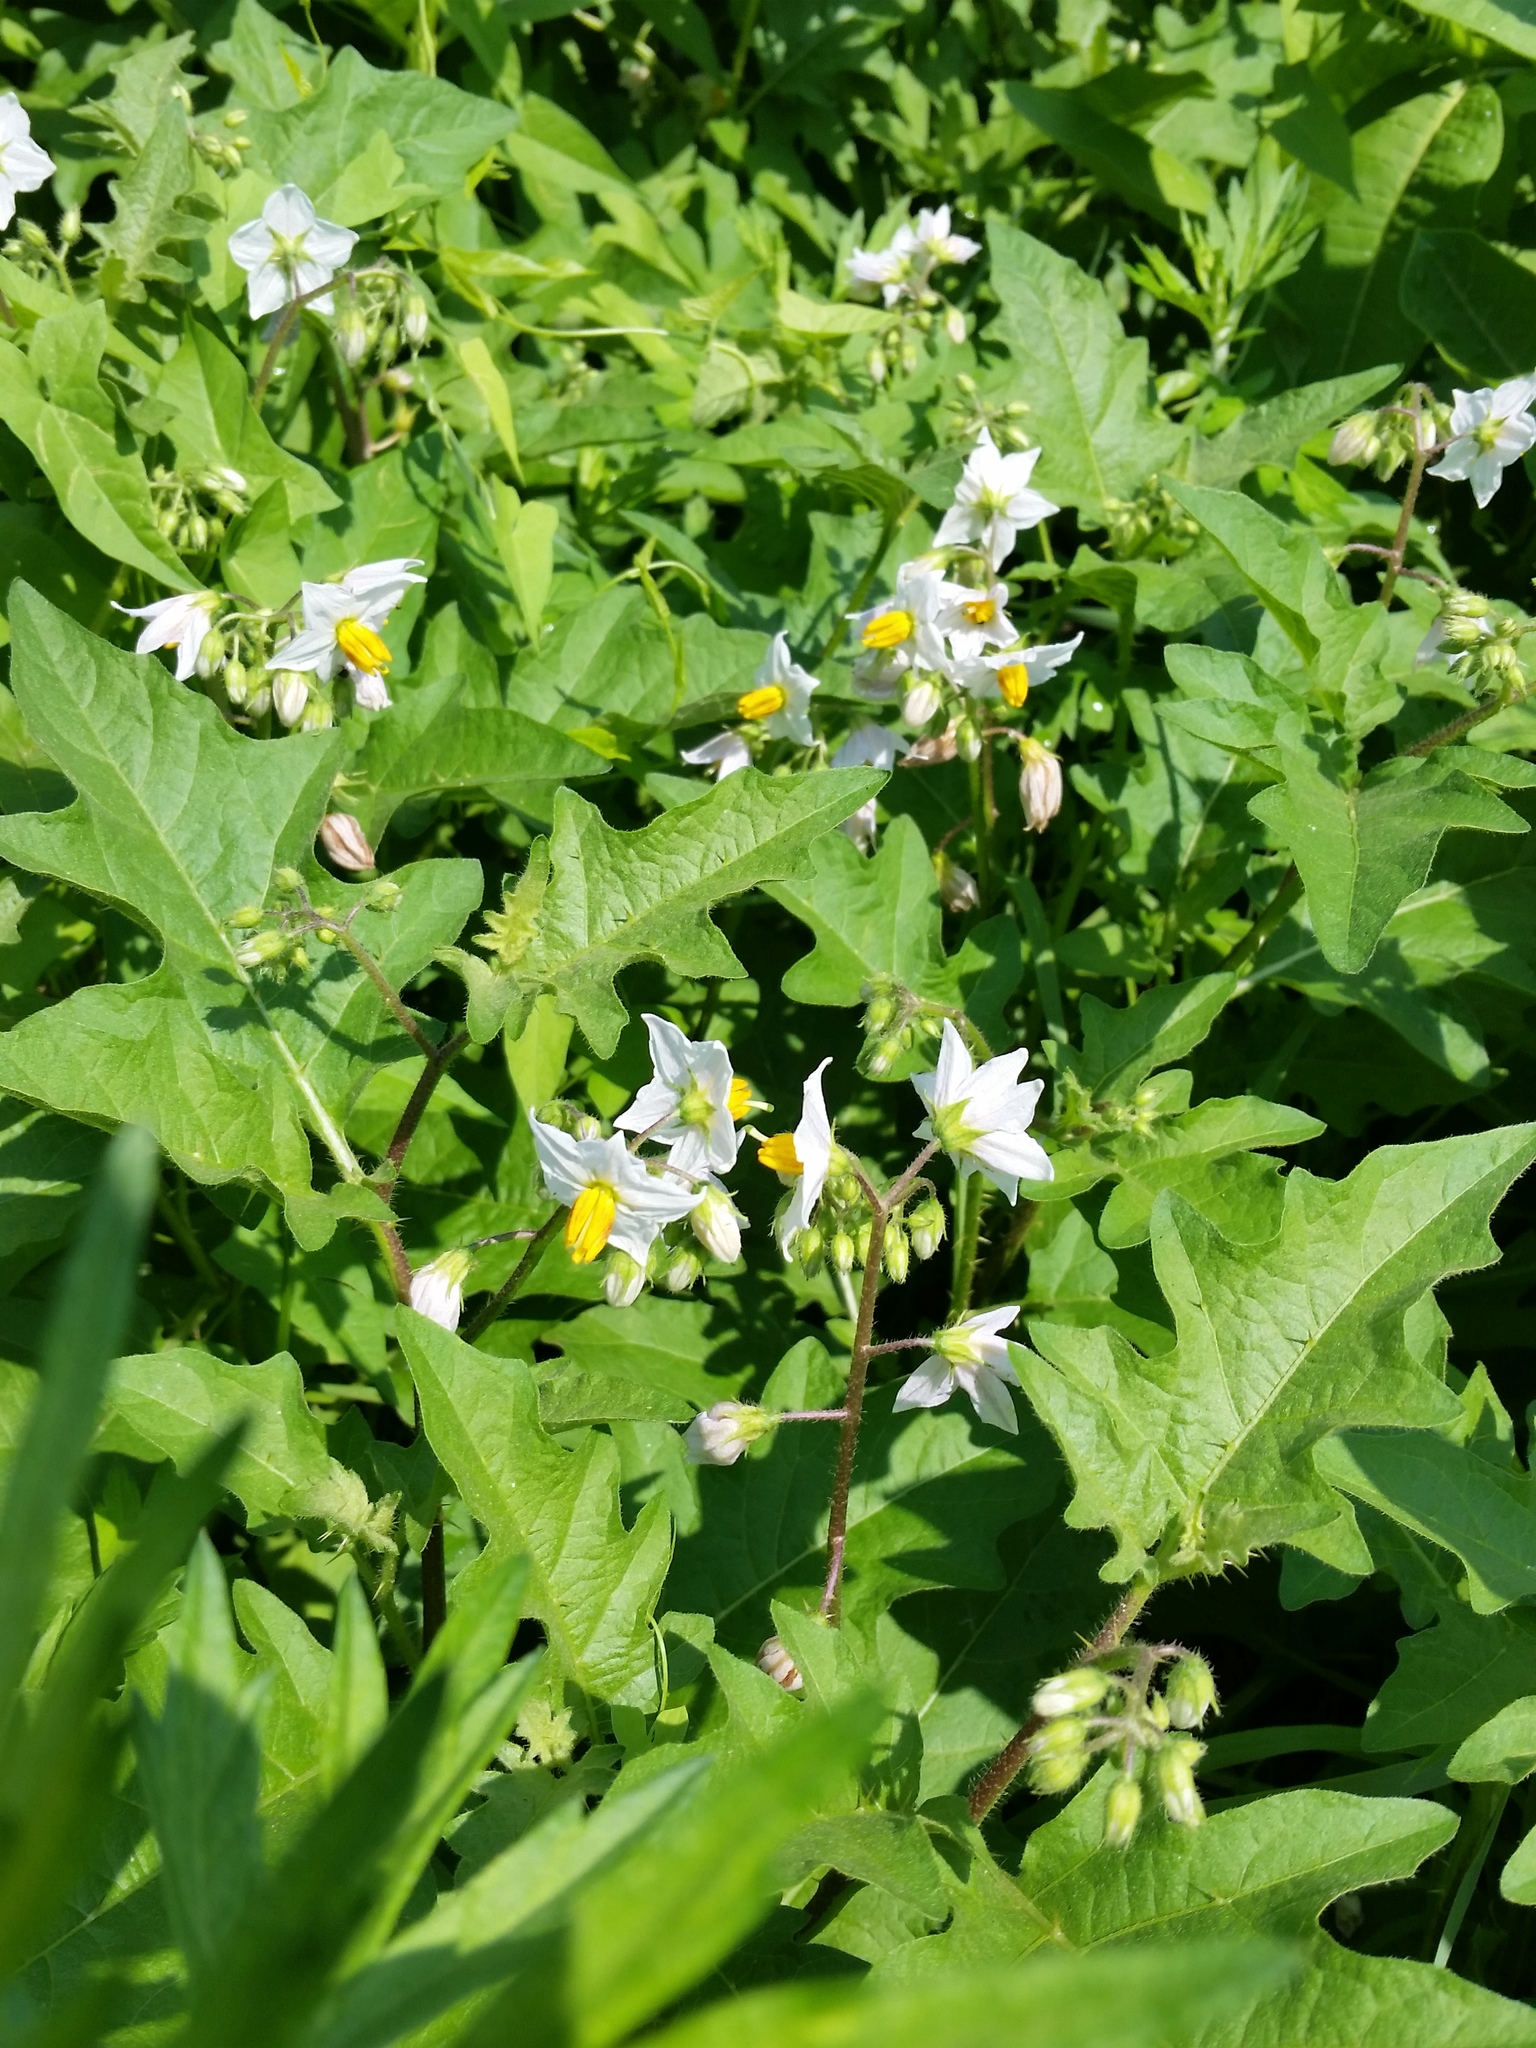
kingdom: Plantae
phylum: Tracheophyta
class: Magnoliopsida
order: Solanales
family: Solanaceae
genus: Solanum
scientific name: Solanum carolinense
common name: Horse-nettle
